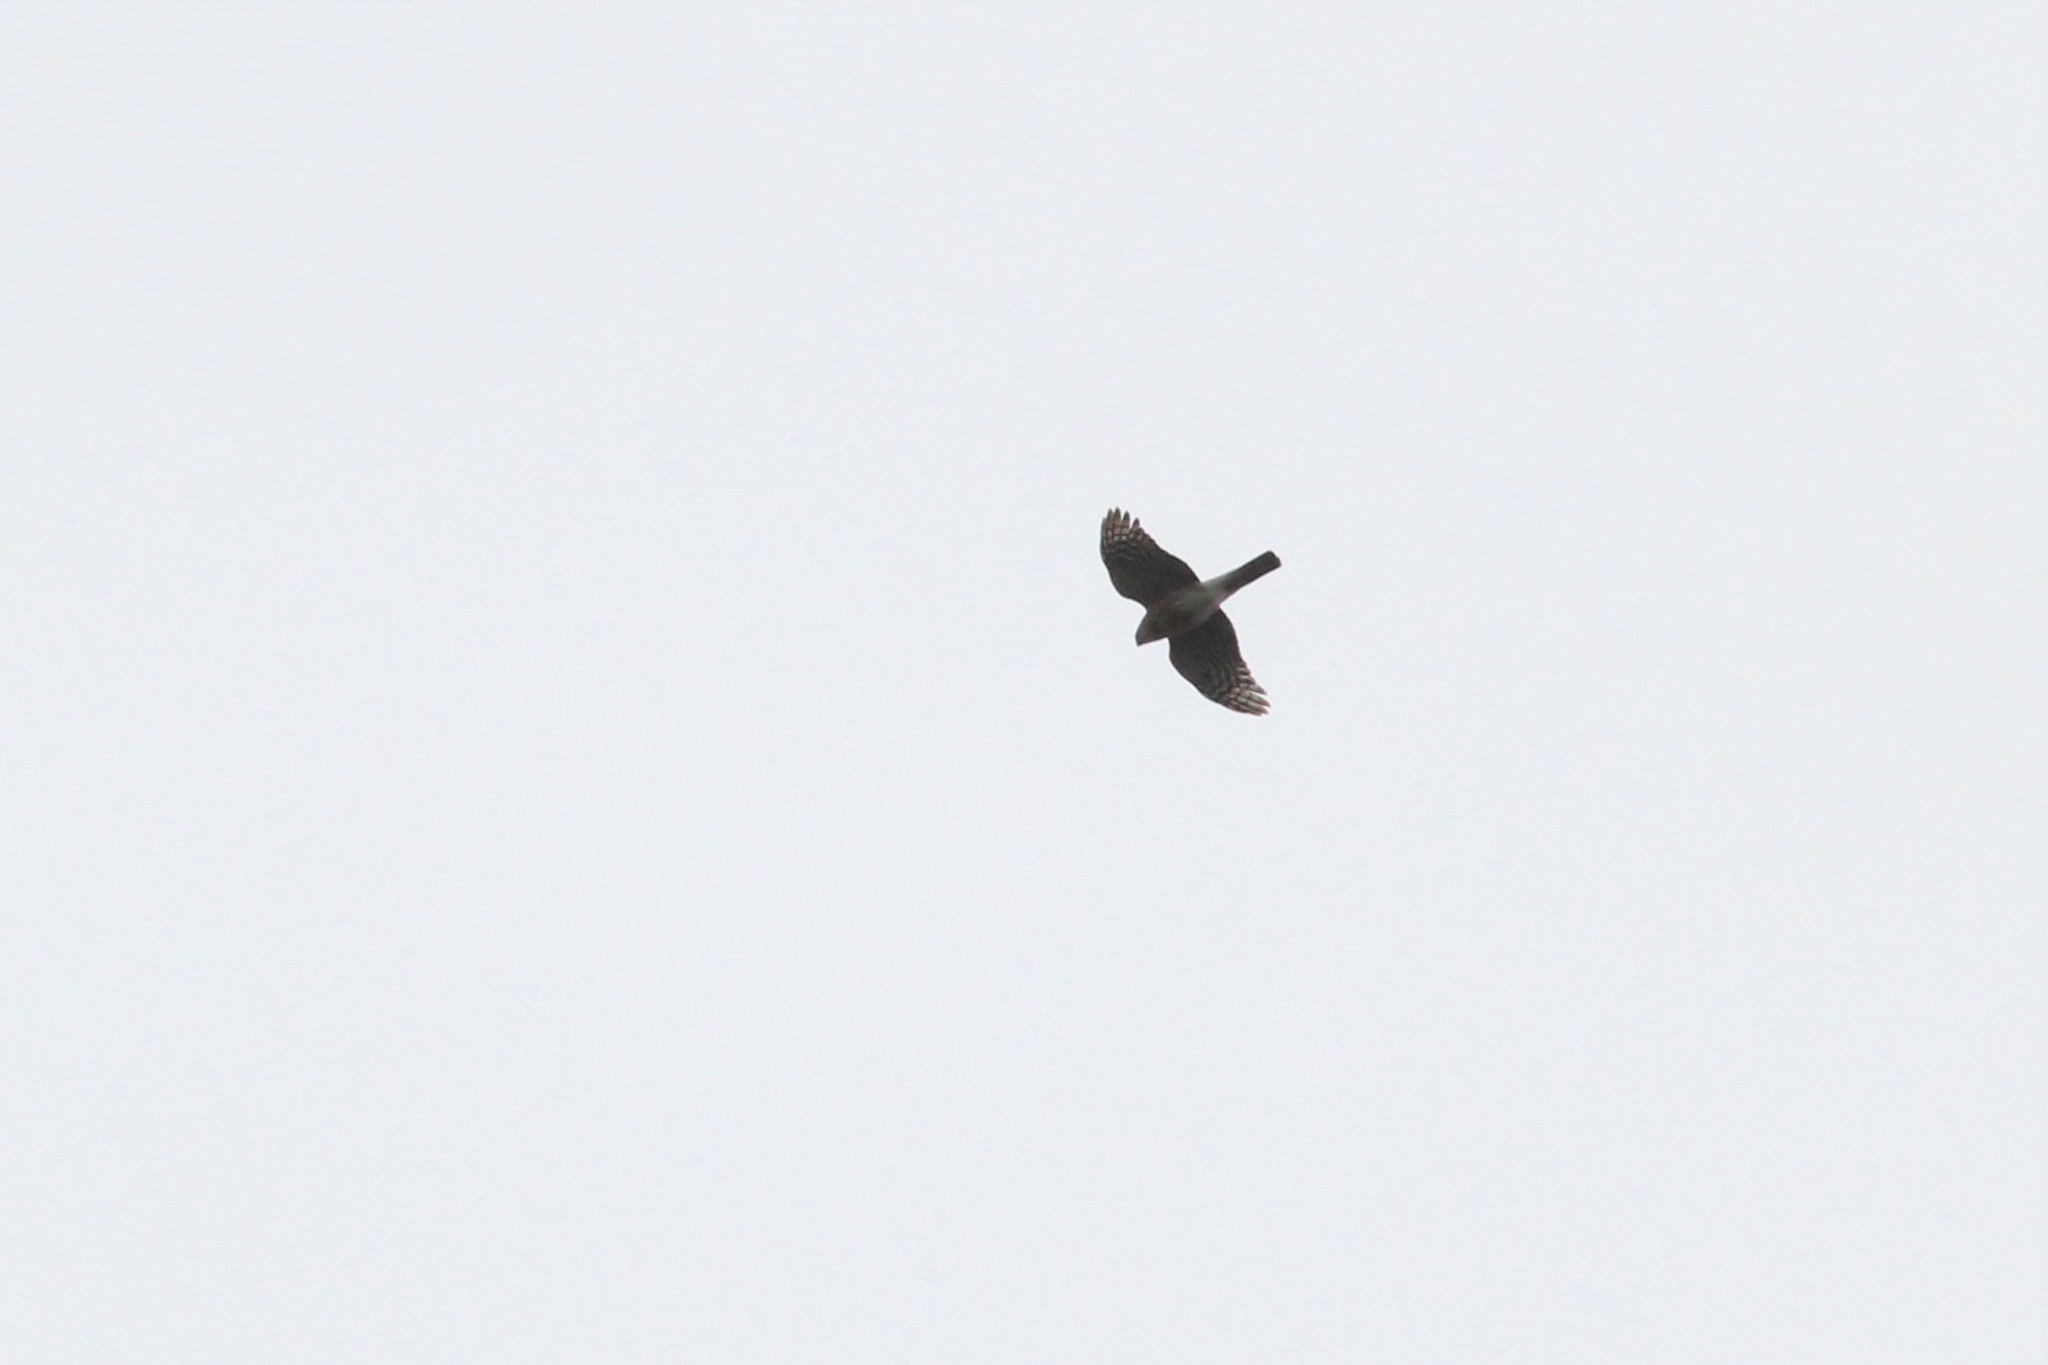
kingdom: Animalia
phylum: Chordata
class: Aves
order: Accipitriformes
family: Accipitridae
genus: Accipiter
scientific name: Accipiter striatus
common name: Sharp-shinned hawk
